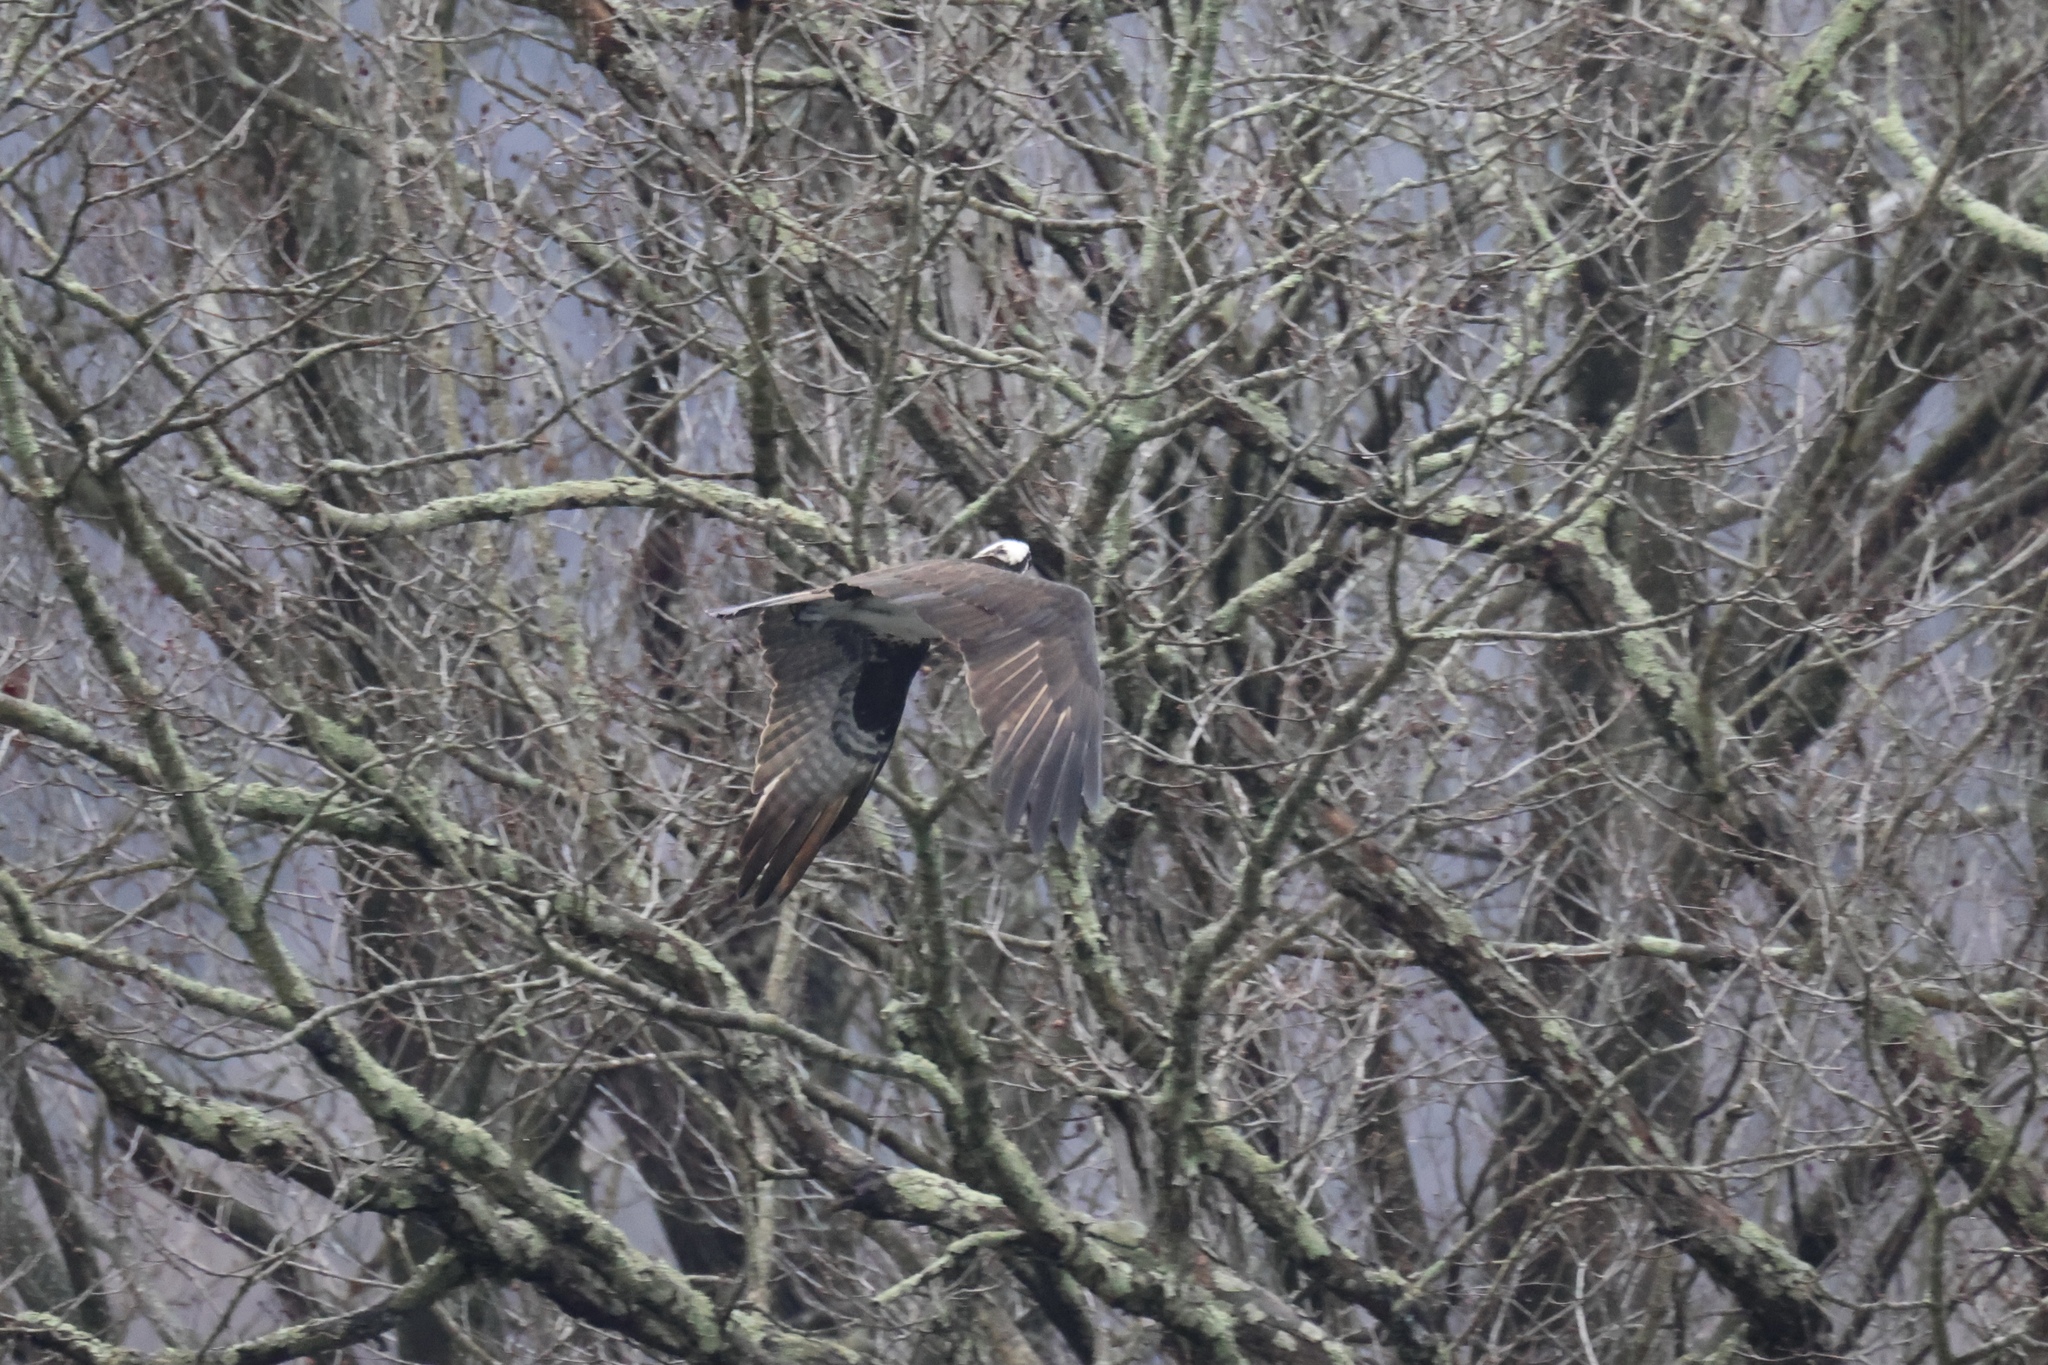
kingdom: Animalia
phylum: Chordata
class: Aves
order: Accipitriformes
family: Pandionidae
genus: Pandion
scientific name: Pandion haliaetus
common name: Osprey
